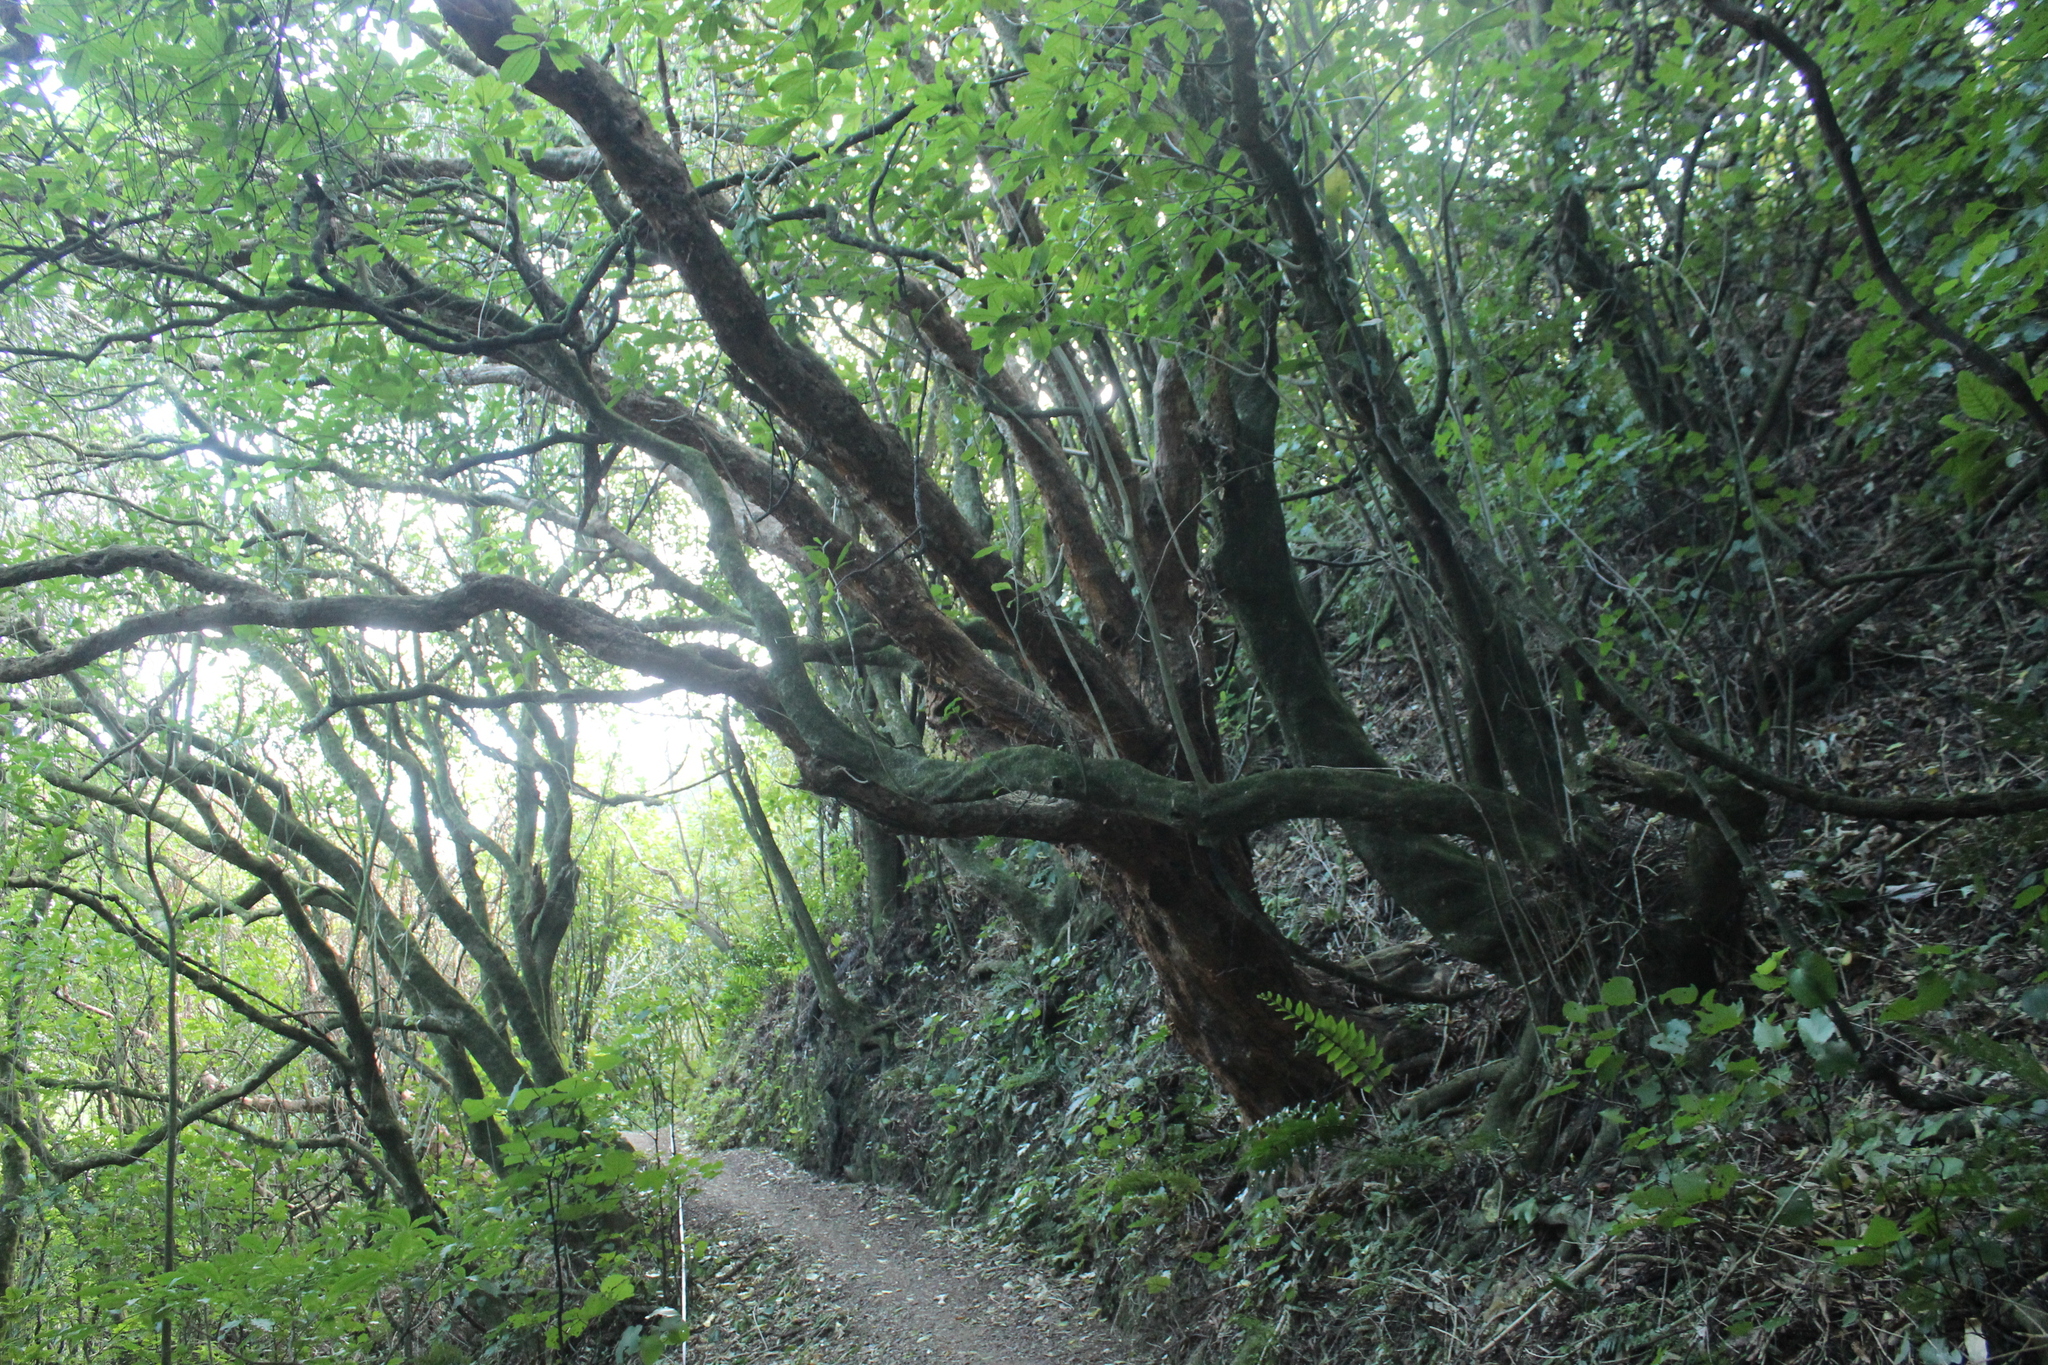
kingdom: Plantae
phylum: Tracheophyta
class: Magnoliopsida
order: Myrtales
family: Onagraceae
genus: Fuchsia
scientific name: Fuchsia excorticata
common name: Tree fuchsia
